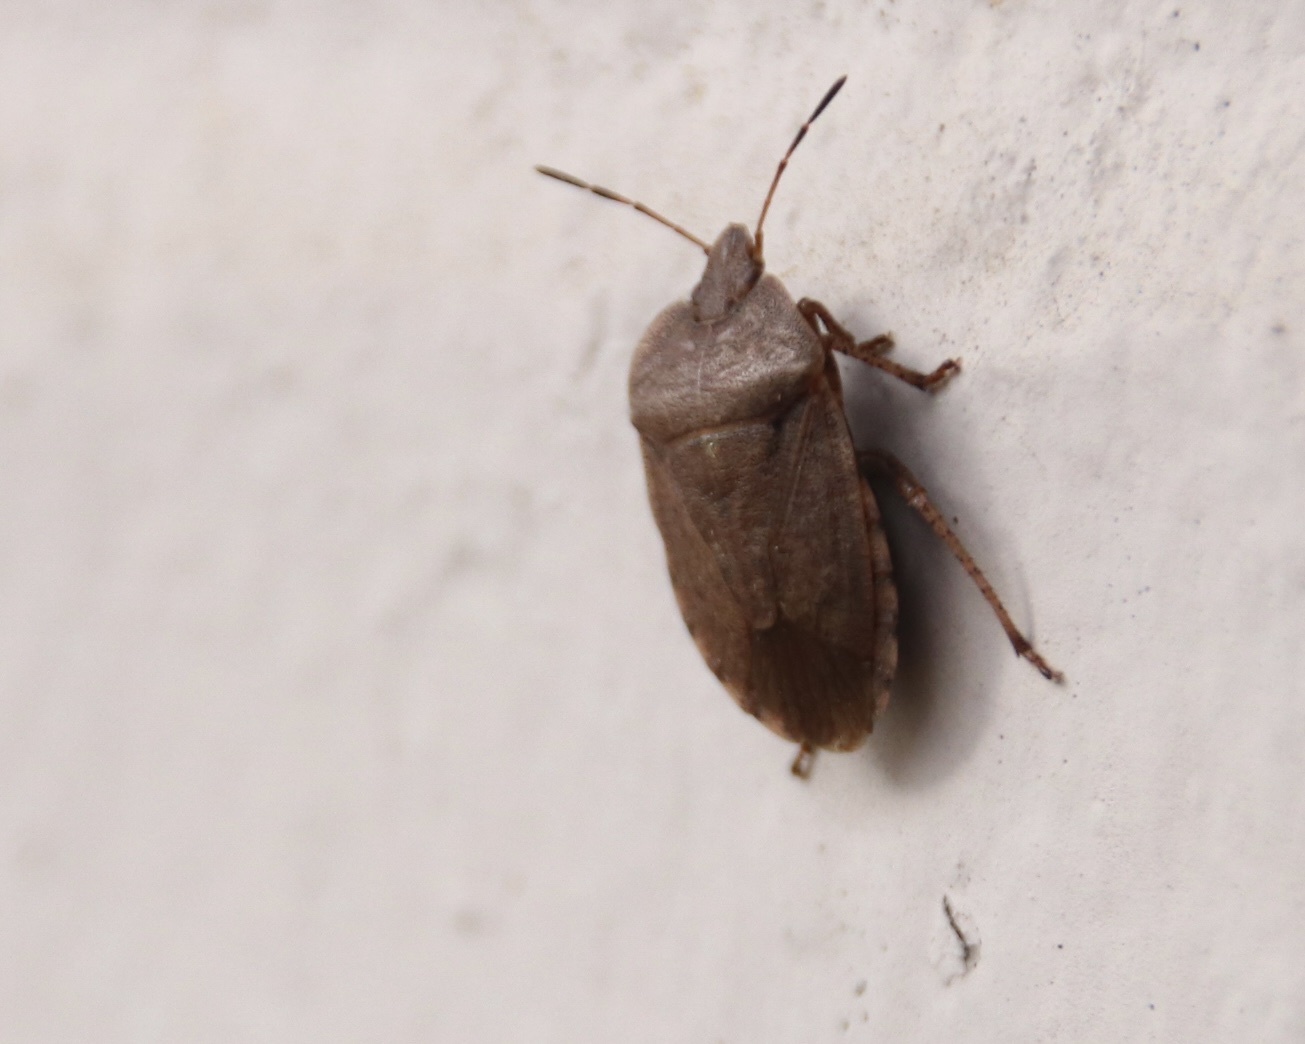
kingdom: Animalia
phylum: Arthropoda
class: Insecta
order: Hemiptera
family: Pentatomidae
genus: Menecles
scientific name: Menecles insertus
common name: Elf shoe stink bug
